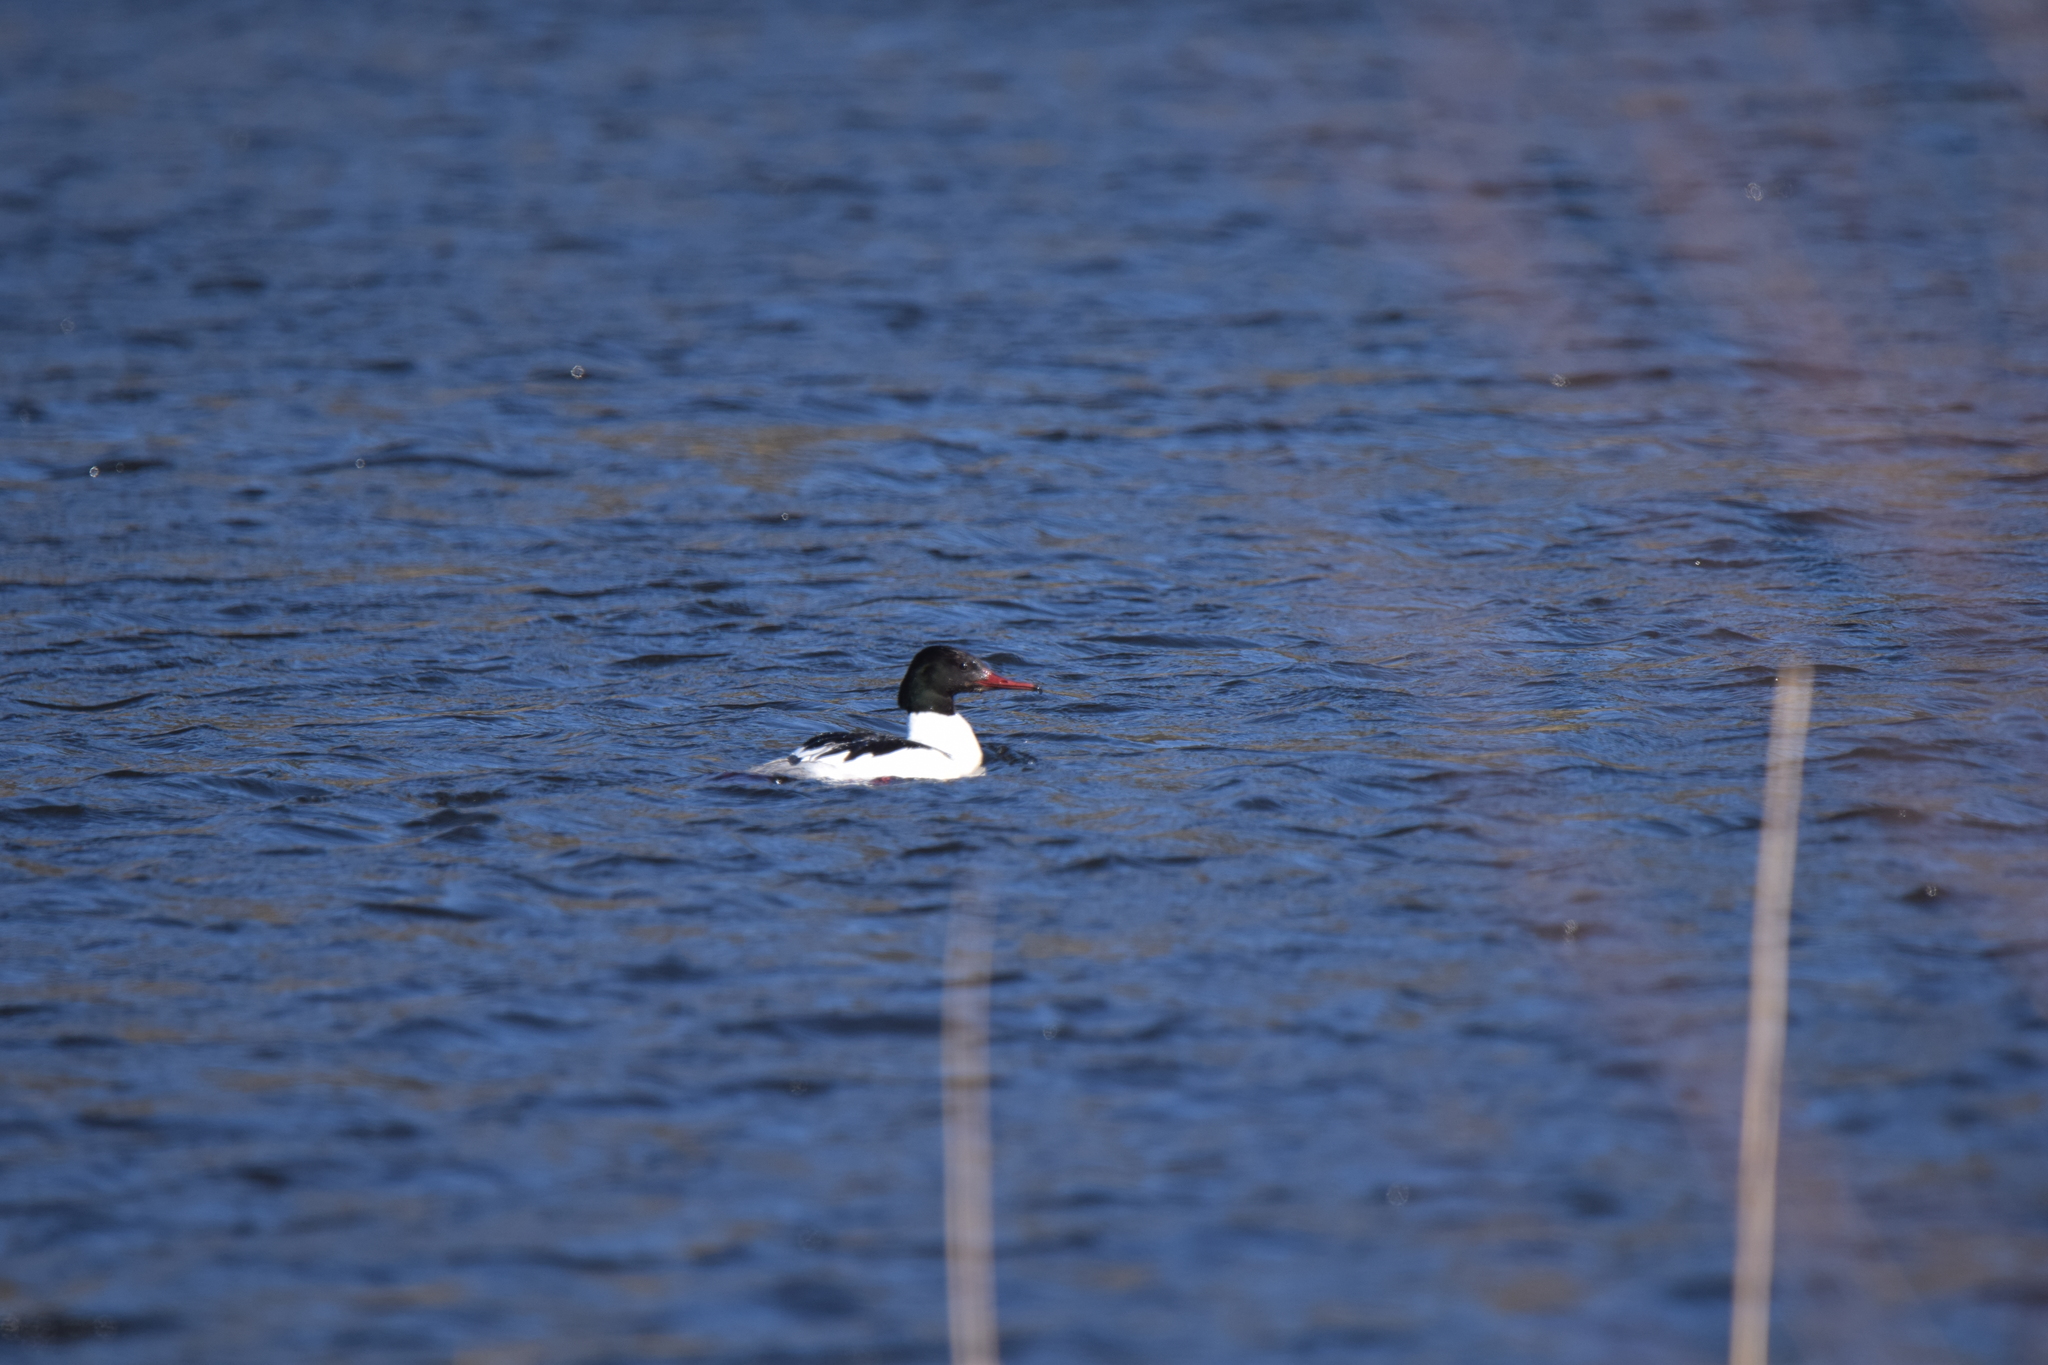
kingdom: Animalia
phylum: Chordata
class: Aves
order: Anseriformes
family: Anatidae
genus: Mergus
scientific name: Mergus merganser
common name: Common merganser
